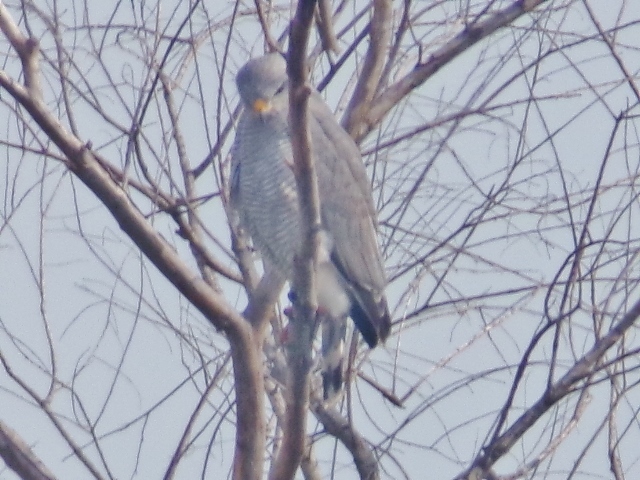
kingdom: Animalia
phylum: Chordata
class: Aves
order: Accipitriformes
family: Accipitridae
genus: Buteo
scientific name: Buteo nitidus
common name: Grey-lined hawk
